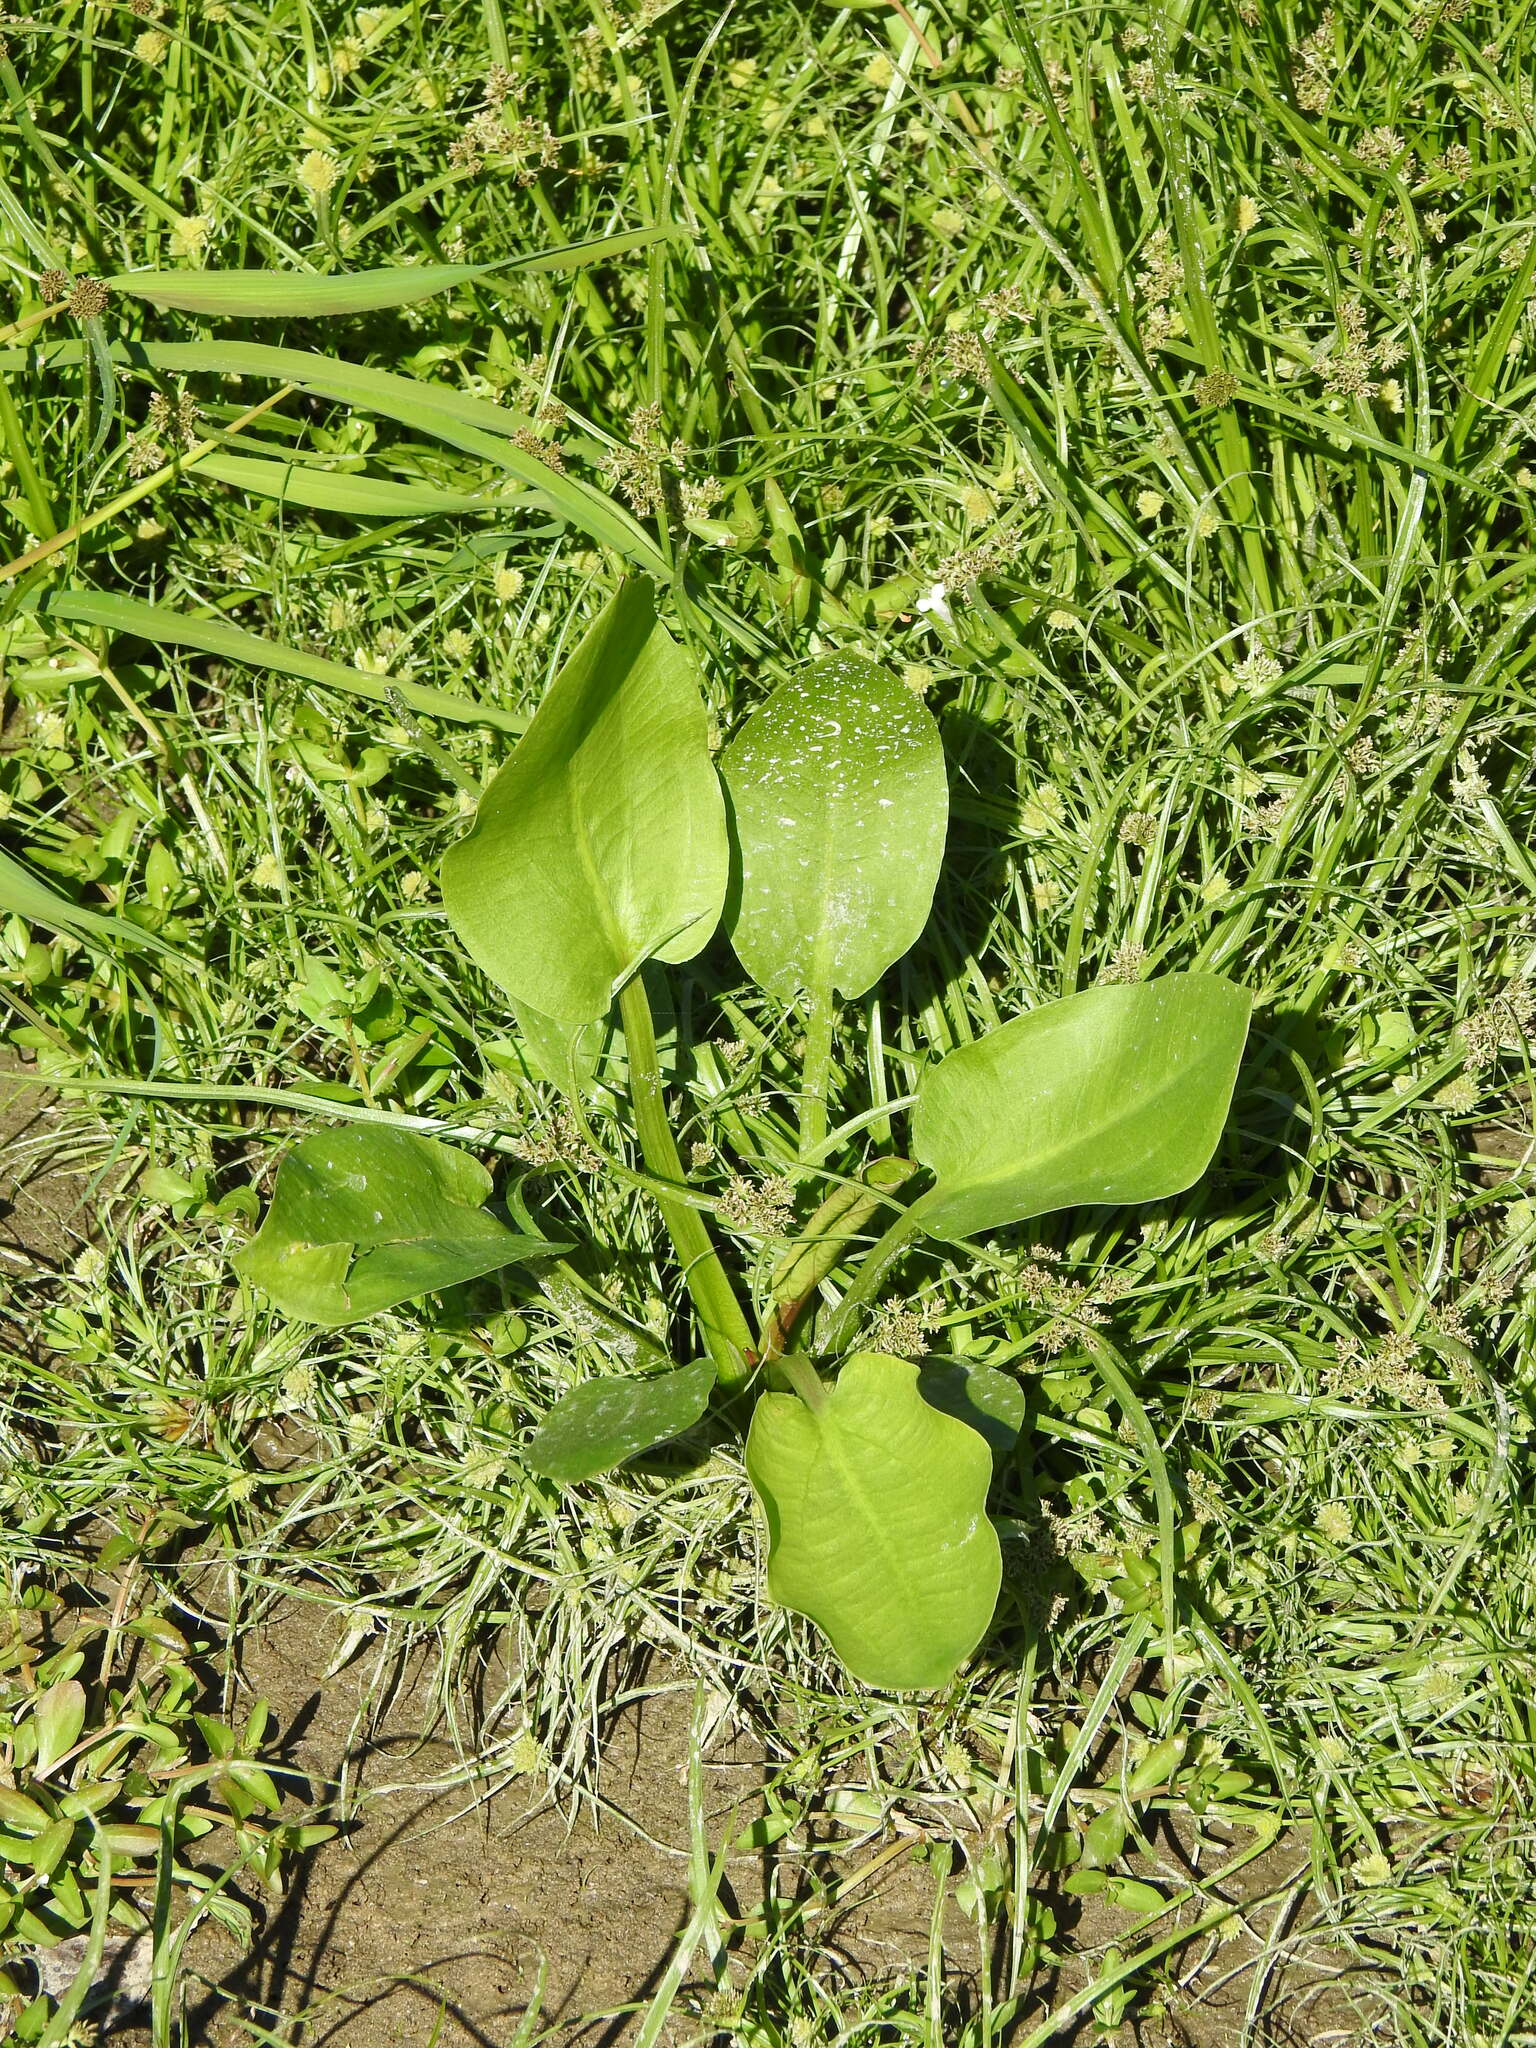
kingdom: Plantae
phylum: Tracheophyta
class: Liliopsida
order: Alismatales
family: Alismataceae
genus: Alisma
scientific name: Alisma plantago-aquatica
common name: Water-plantain
